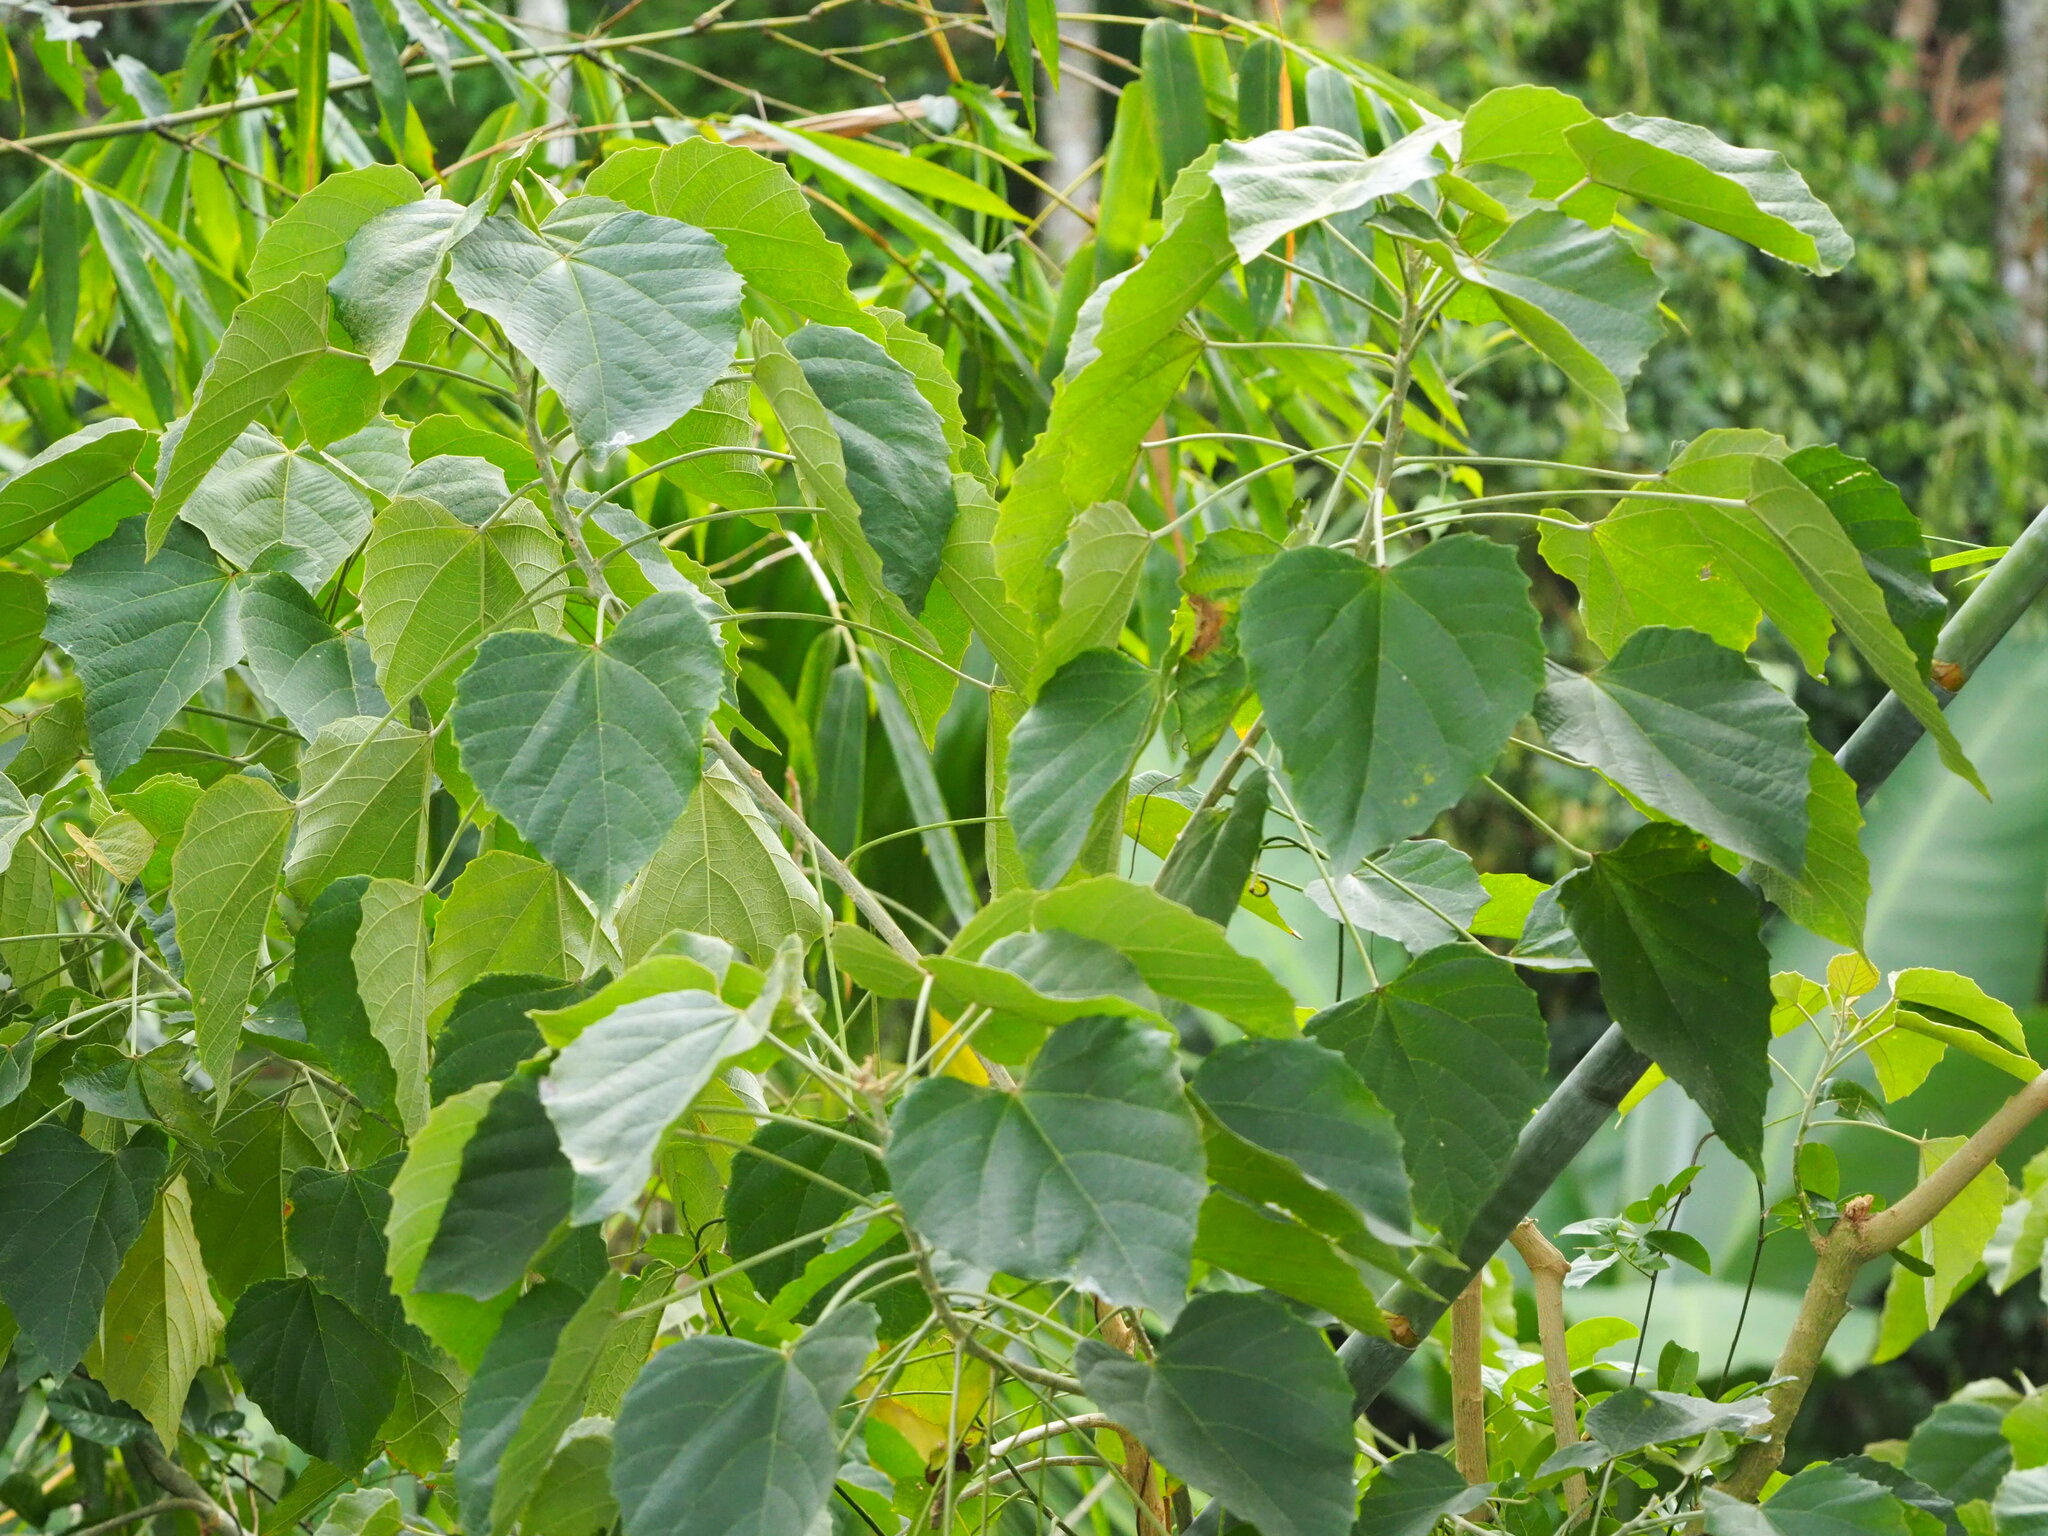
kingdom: Plantae
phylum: Tracheophyta
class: Magnoliopsida
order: Malpighiales
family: Euphorbiaceae
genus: Melanolepis
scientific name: Melanolepis multiglandulosa
